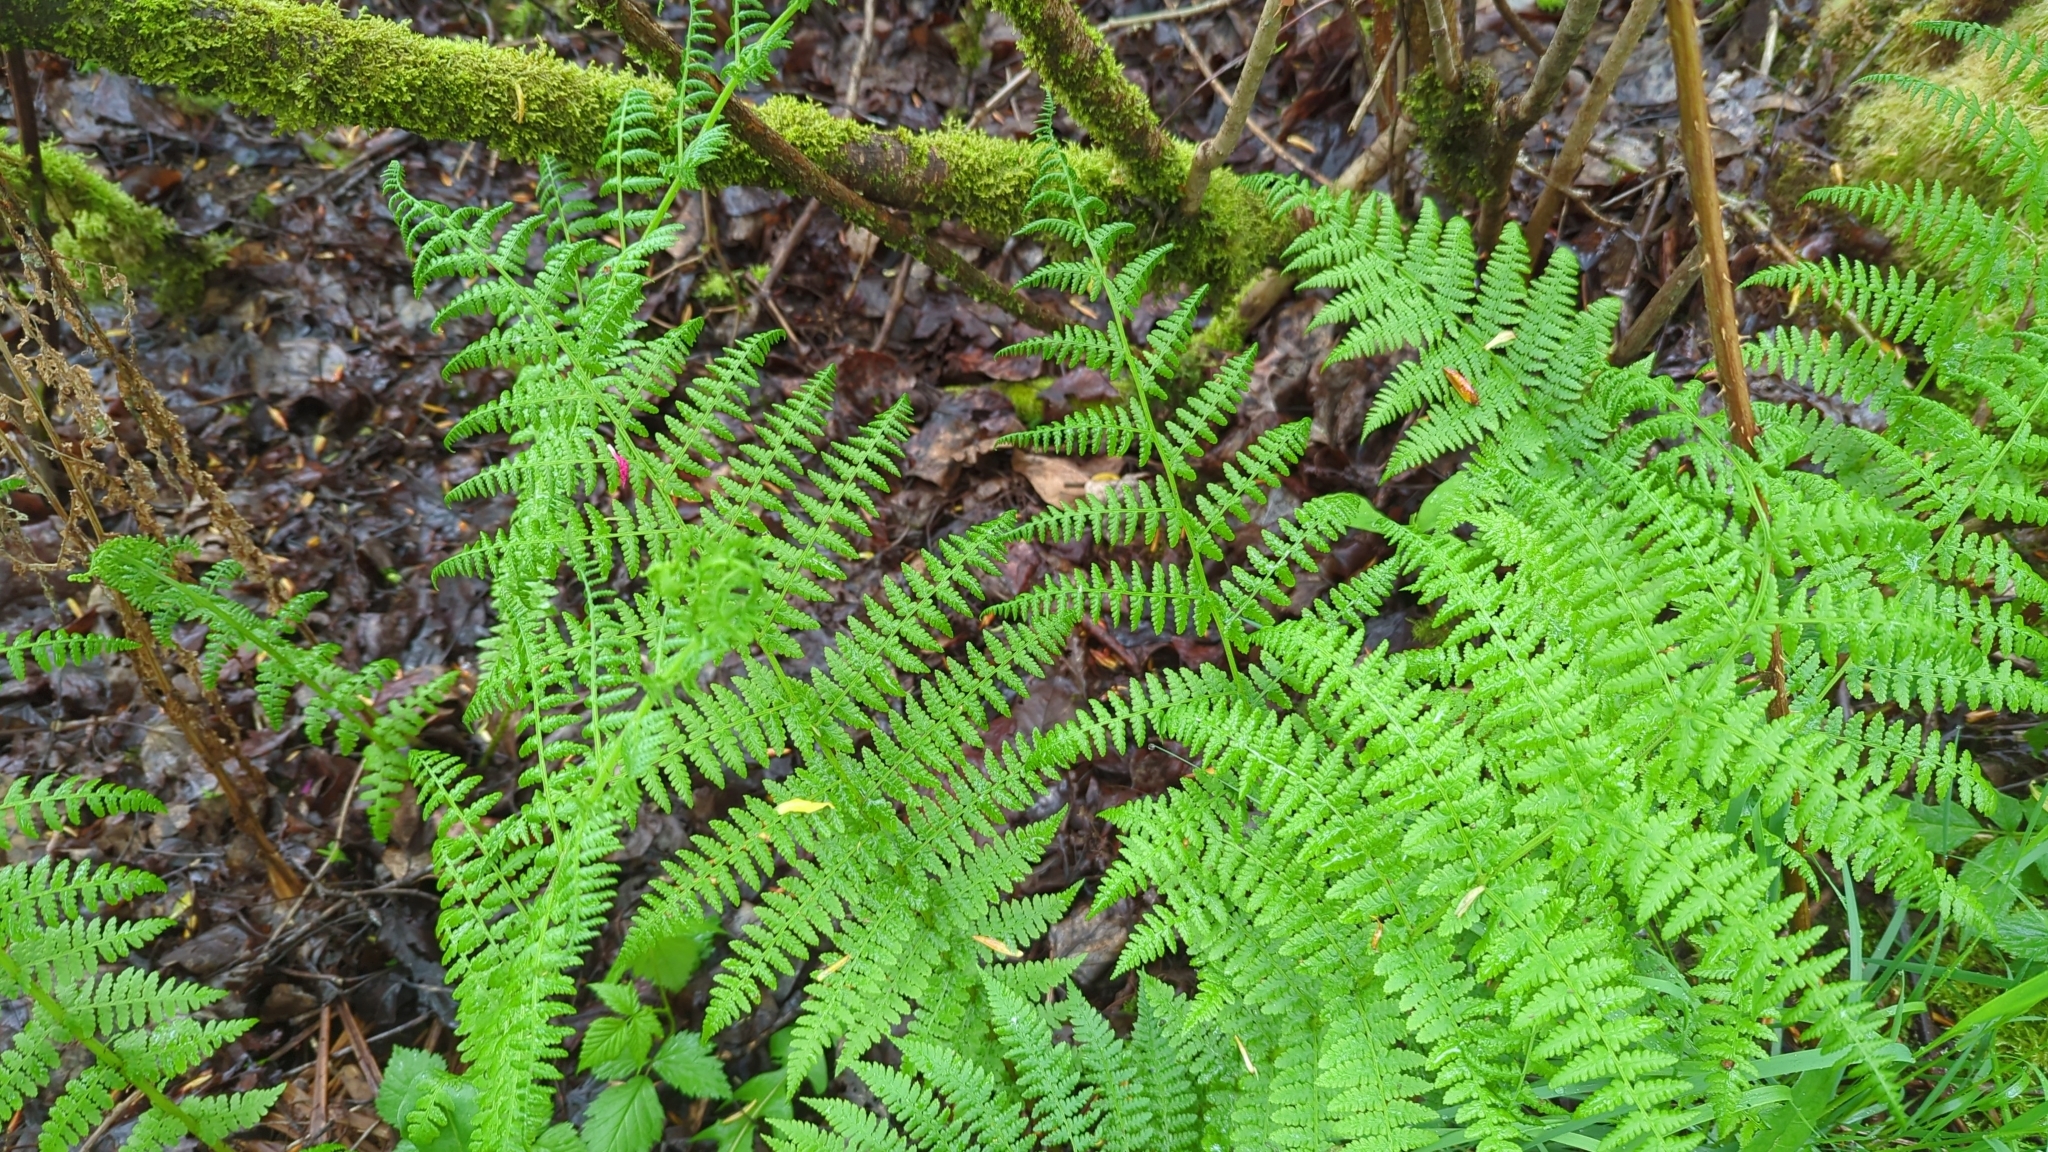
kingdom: Plantae
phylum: Tracheophyta
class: Polypodiopsida
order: Polypodiales
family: Athyriaceae
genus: Athyrium
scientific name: Athyrium filix-femina
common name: Lady fern
